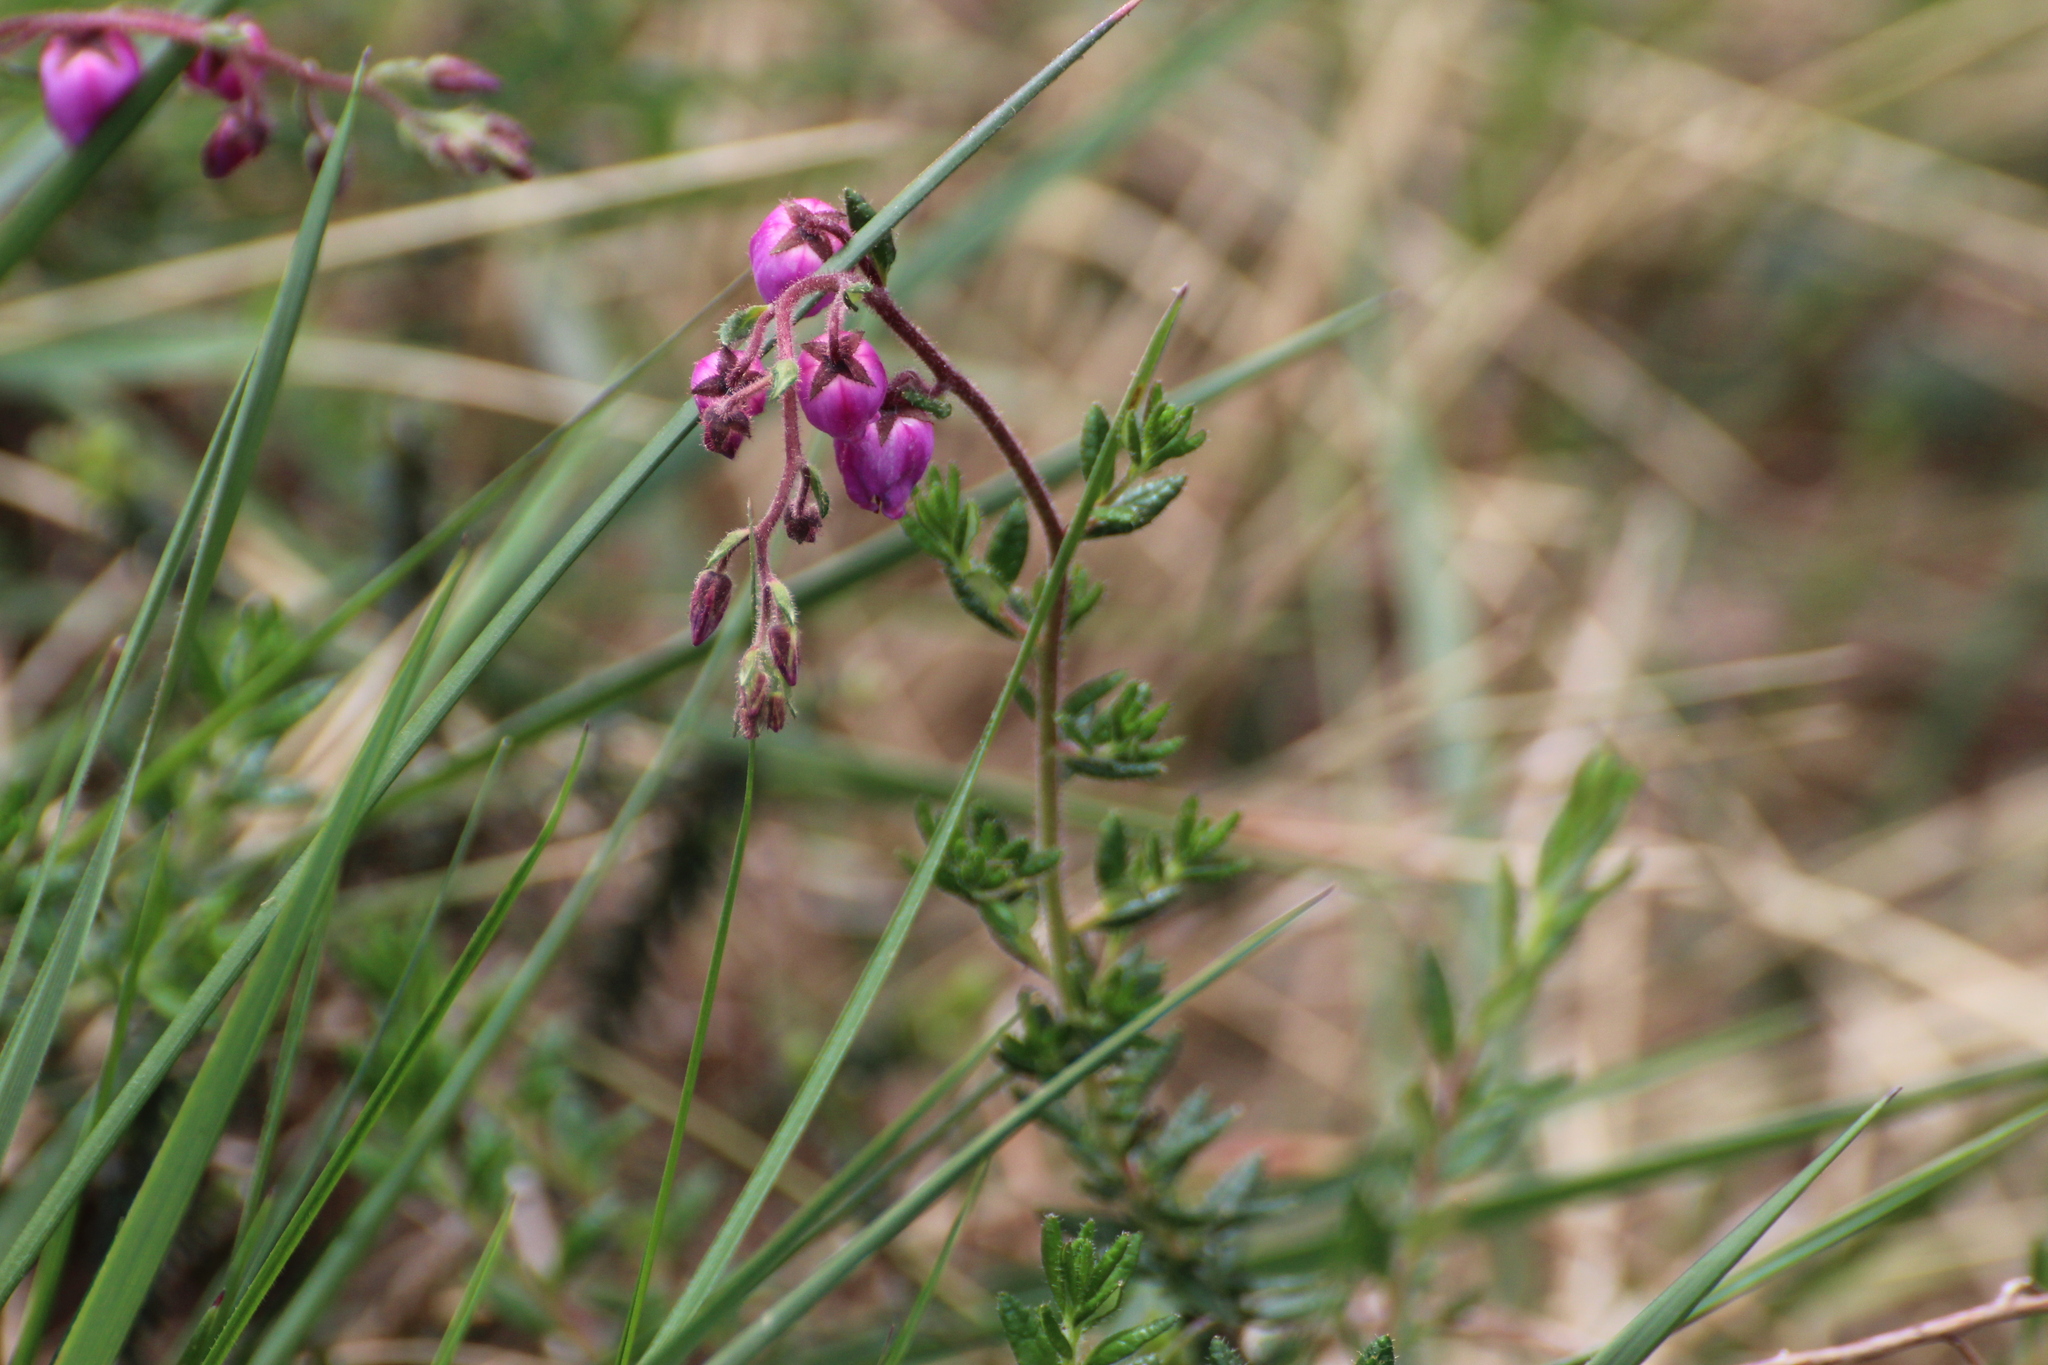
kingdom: Plantae
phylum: Tracheophyta
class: Magnoliopsida
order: Ericales
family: Ericaceae
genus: Daboecia
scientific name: Daboecia cantabrica
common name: St. dabeoc's-heath
